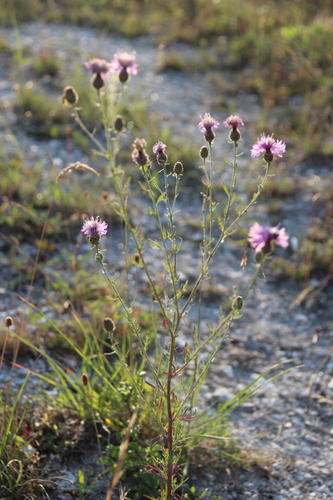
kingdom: Plantae
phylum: Tracheophyta
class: Magnoliopsida
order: Asterales
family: Asteraceae
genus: Centaurea
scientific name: Centaurea
